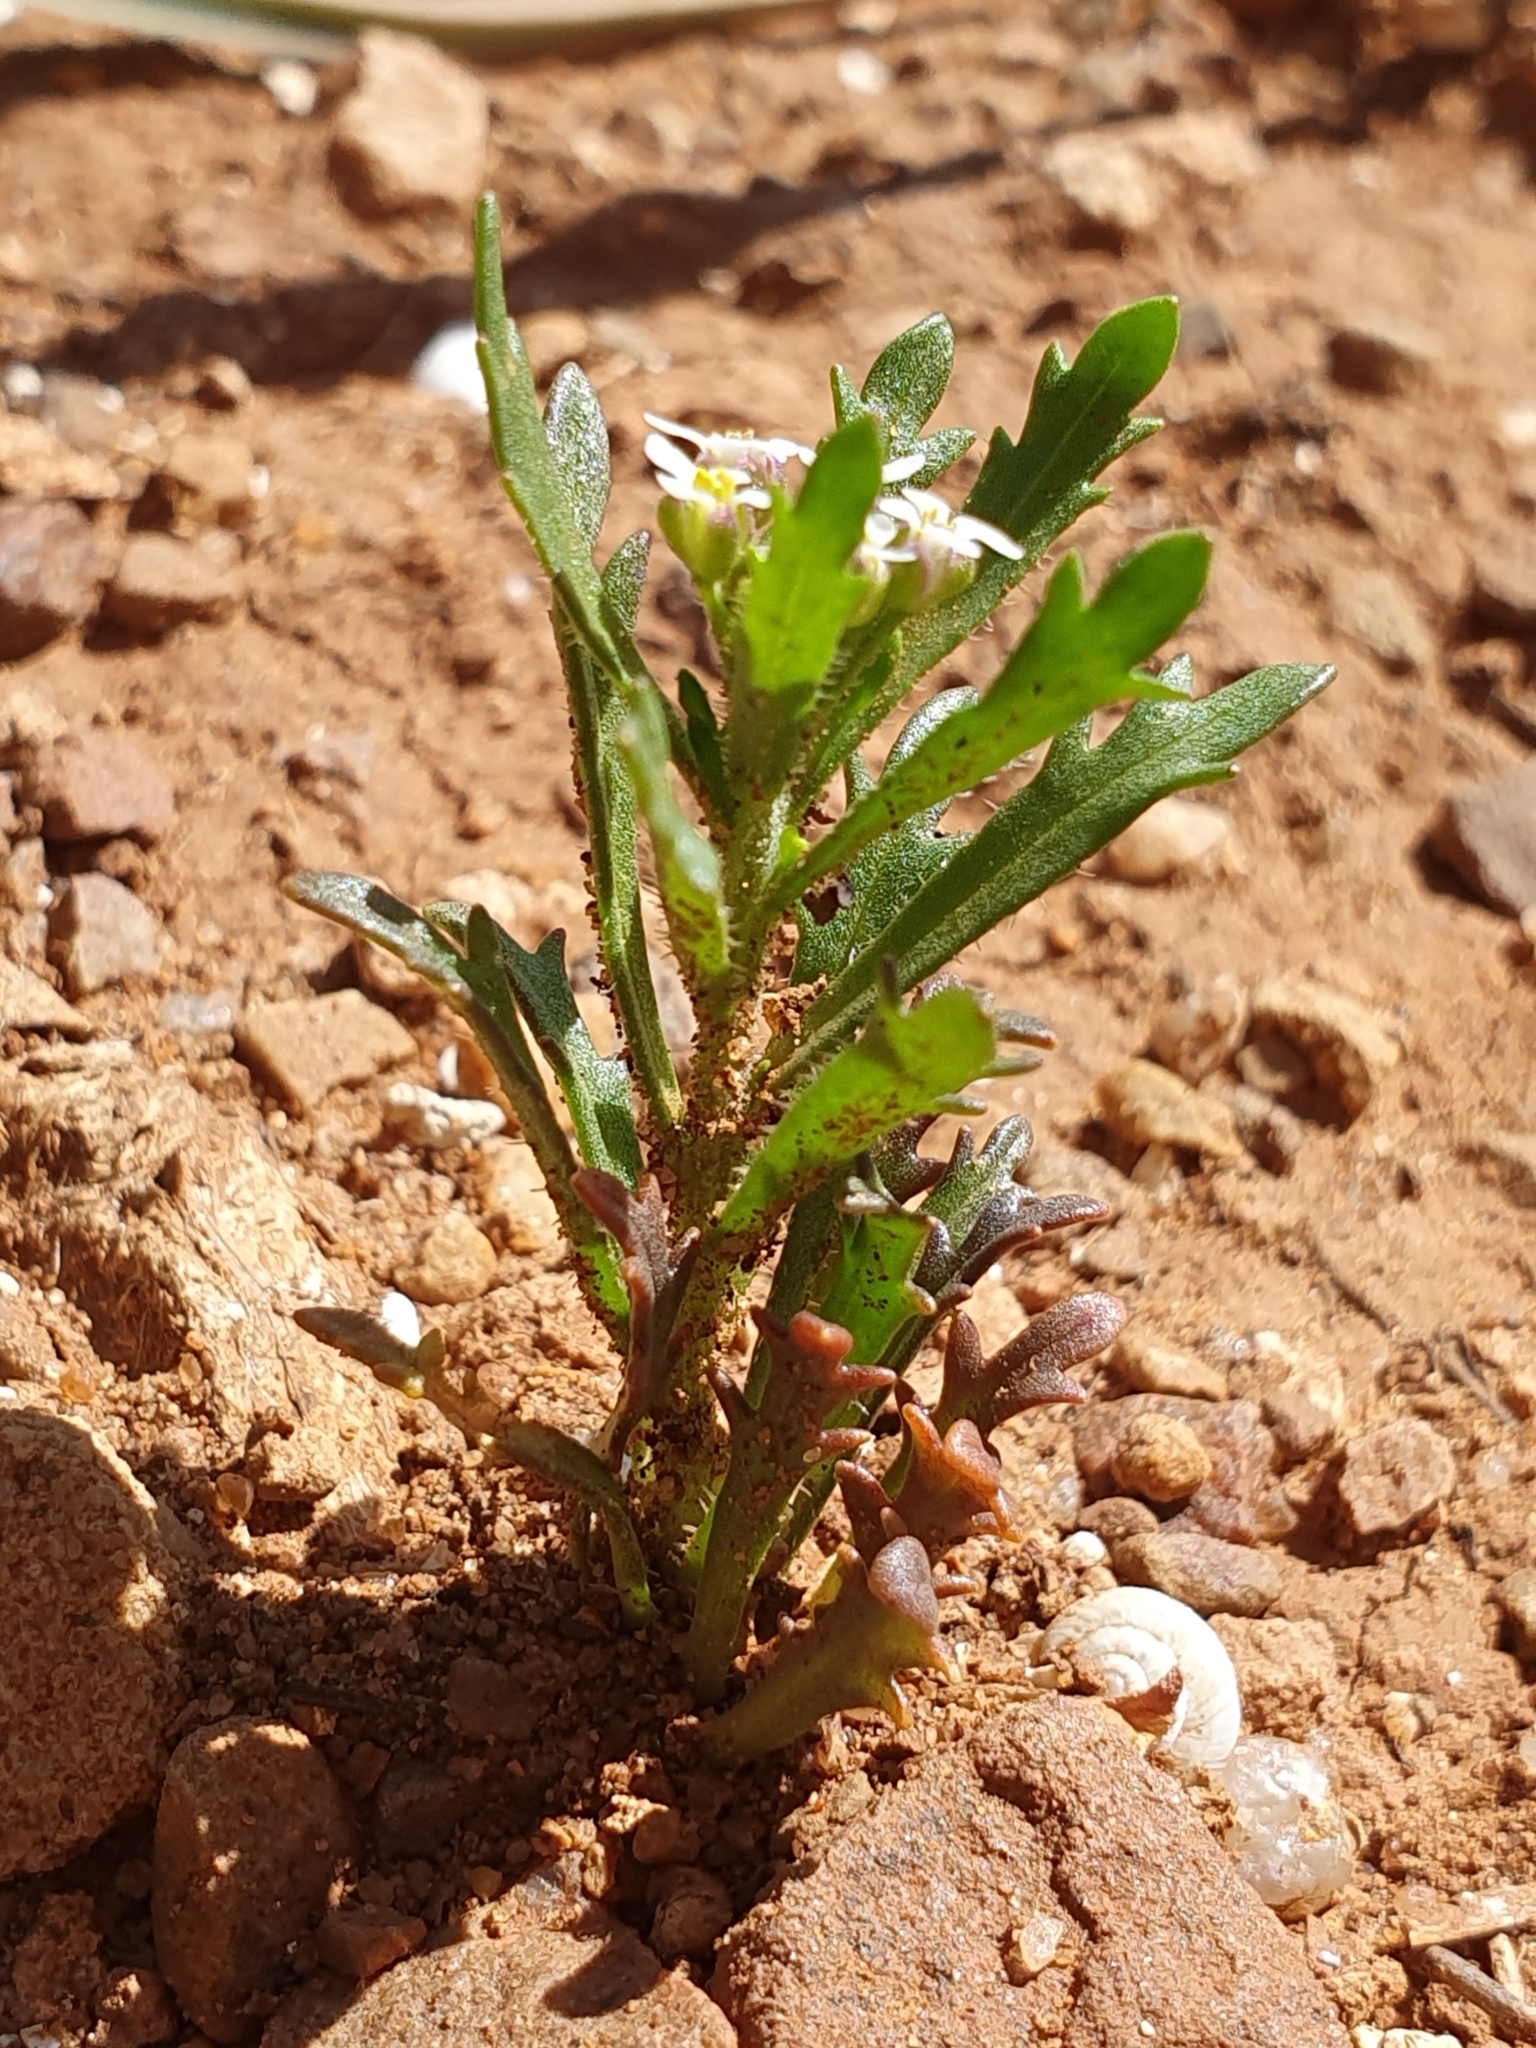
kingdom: Plantae
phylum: Tracheophyta
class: Magnoliopsida
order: Brassicales
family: Brassicaceae
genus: Iberis
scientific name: Iberis odorata
